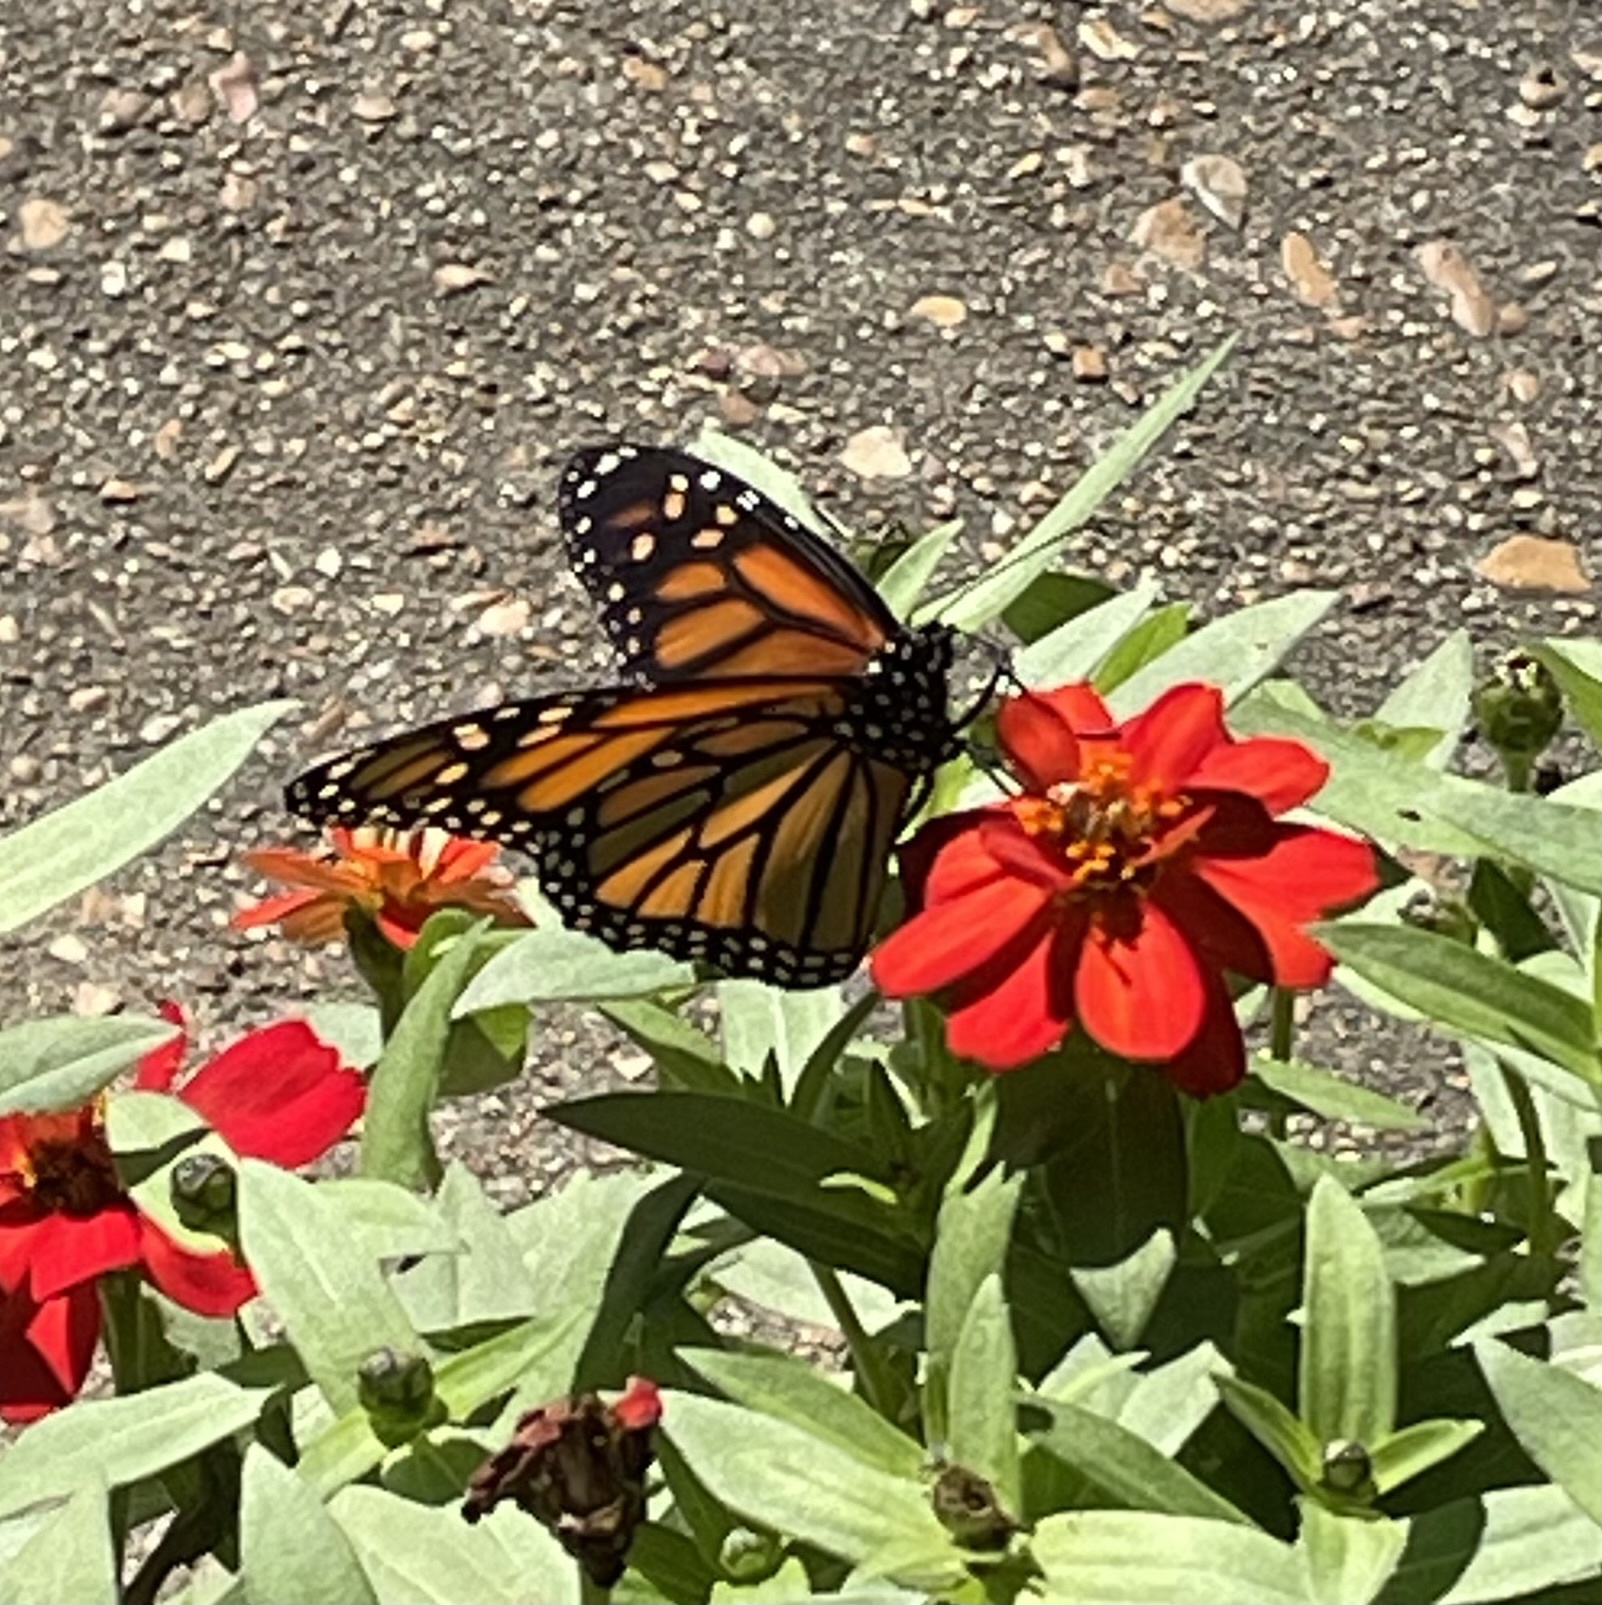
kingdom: Animalia
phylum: Arthropoda
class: Insecta
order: Lepidoptera
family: Nymphalidae
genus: Danaus
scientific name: Danaus plexippus
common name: Monarch
